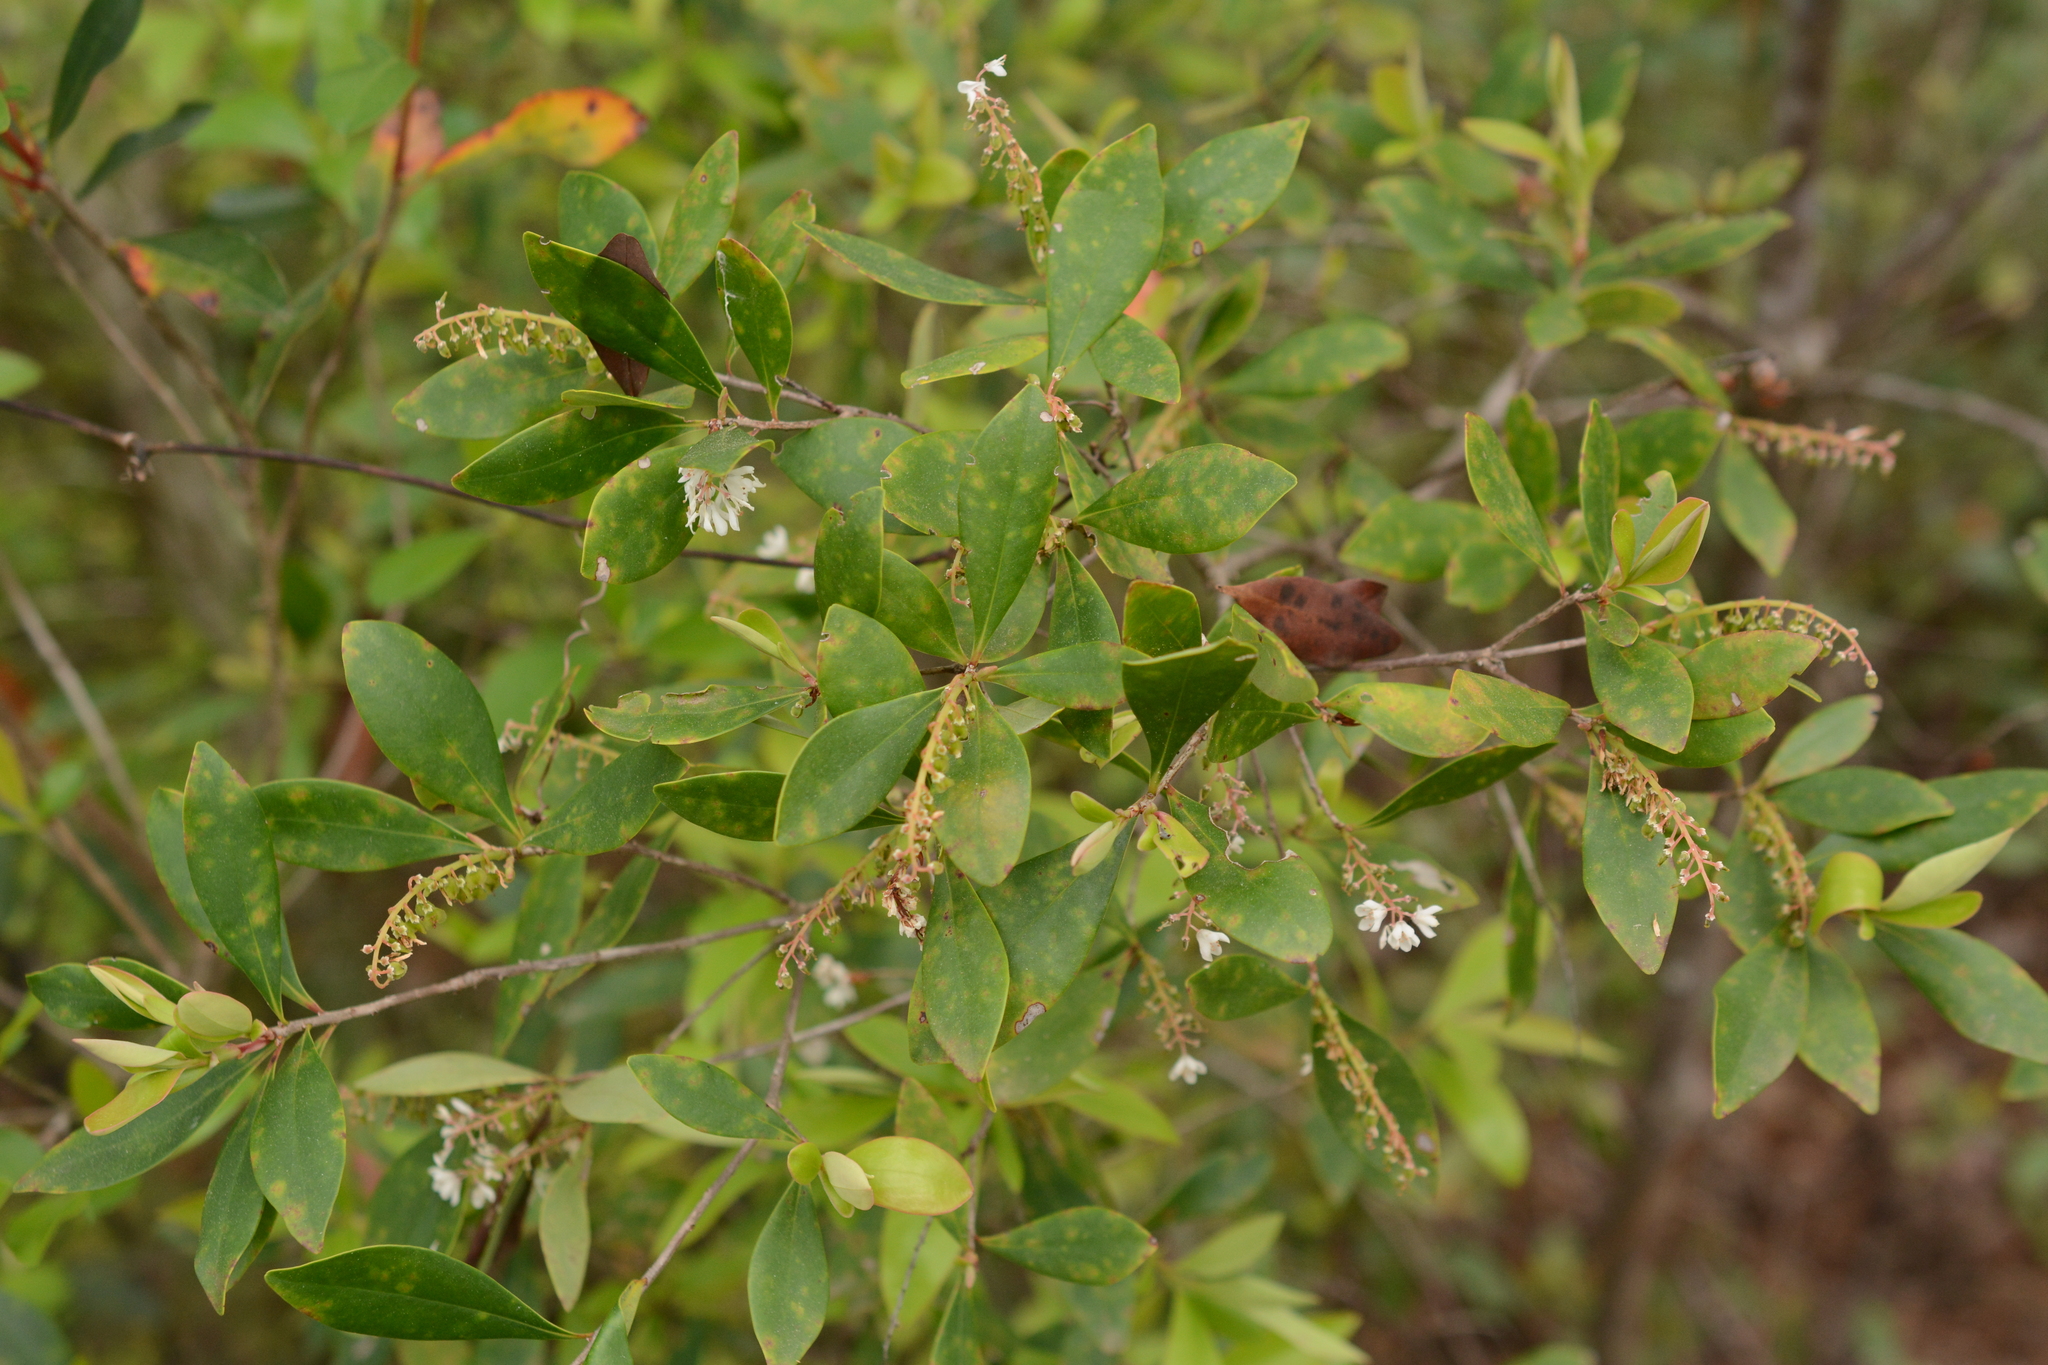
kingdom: Plantae
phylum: Tracheophyta
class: Magnoliopsida
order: Ericales
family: Cyrillaceae
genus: Cliftonia
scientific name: Cliftonia monophylla
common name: Titi
